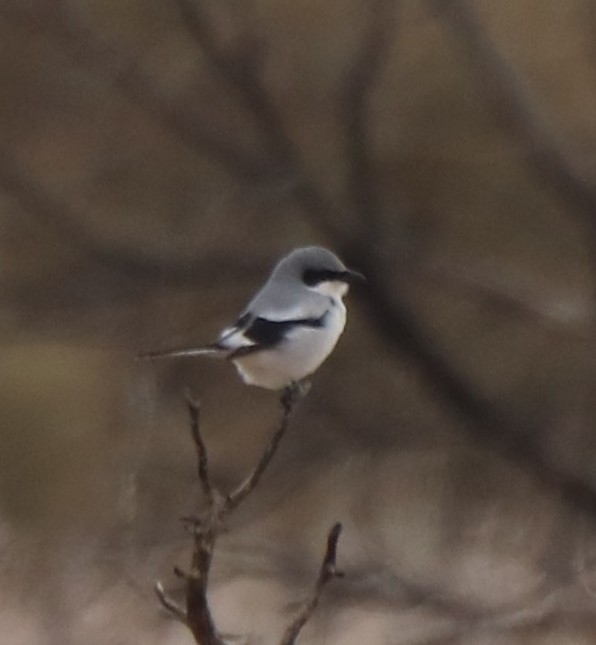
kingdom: Animalia
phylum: Chordata
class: Aves
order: Passeriformes
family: Laniidae
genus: Lanius
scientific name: Lanius ludovicianus
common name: Loggerhead shrike
